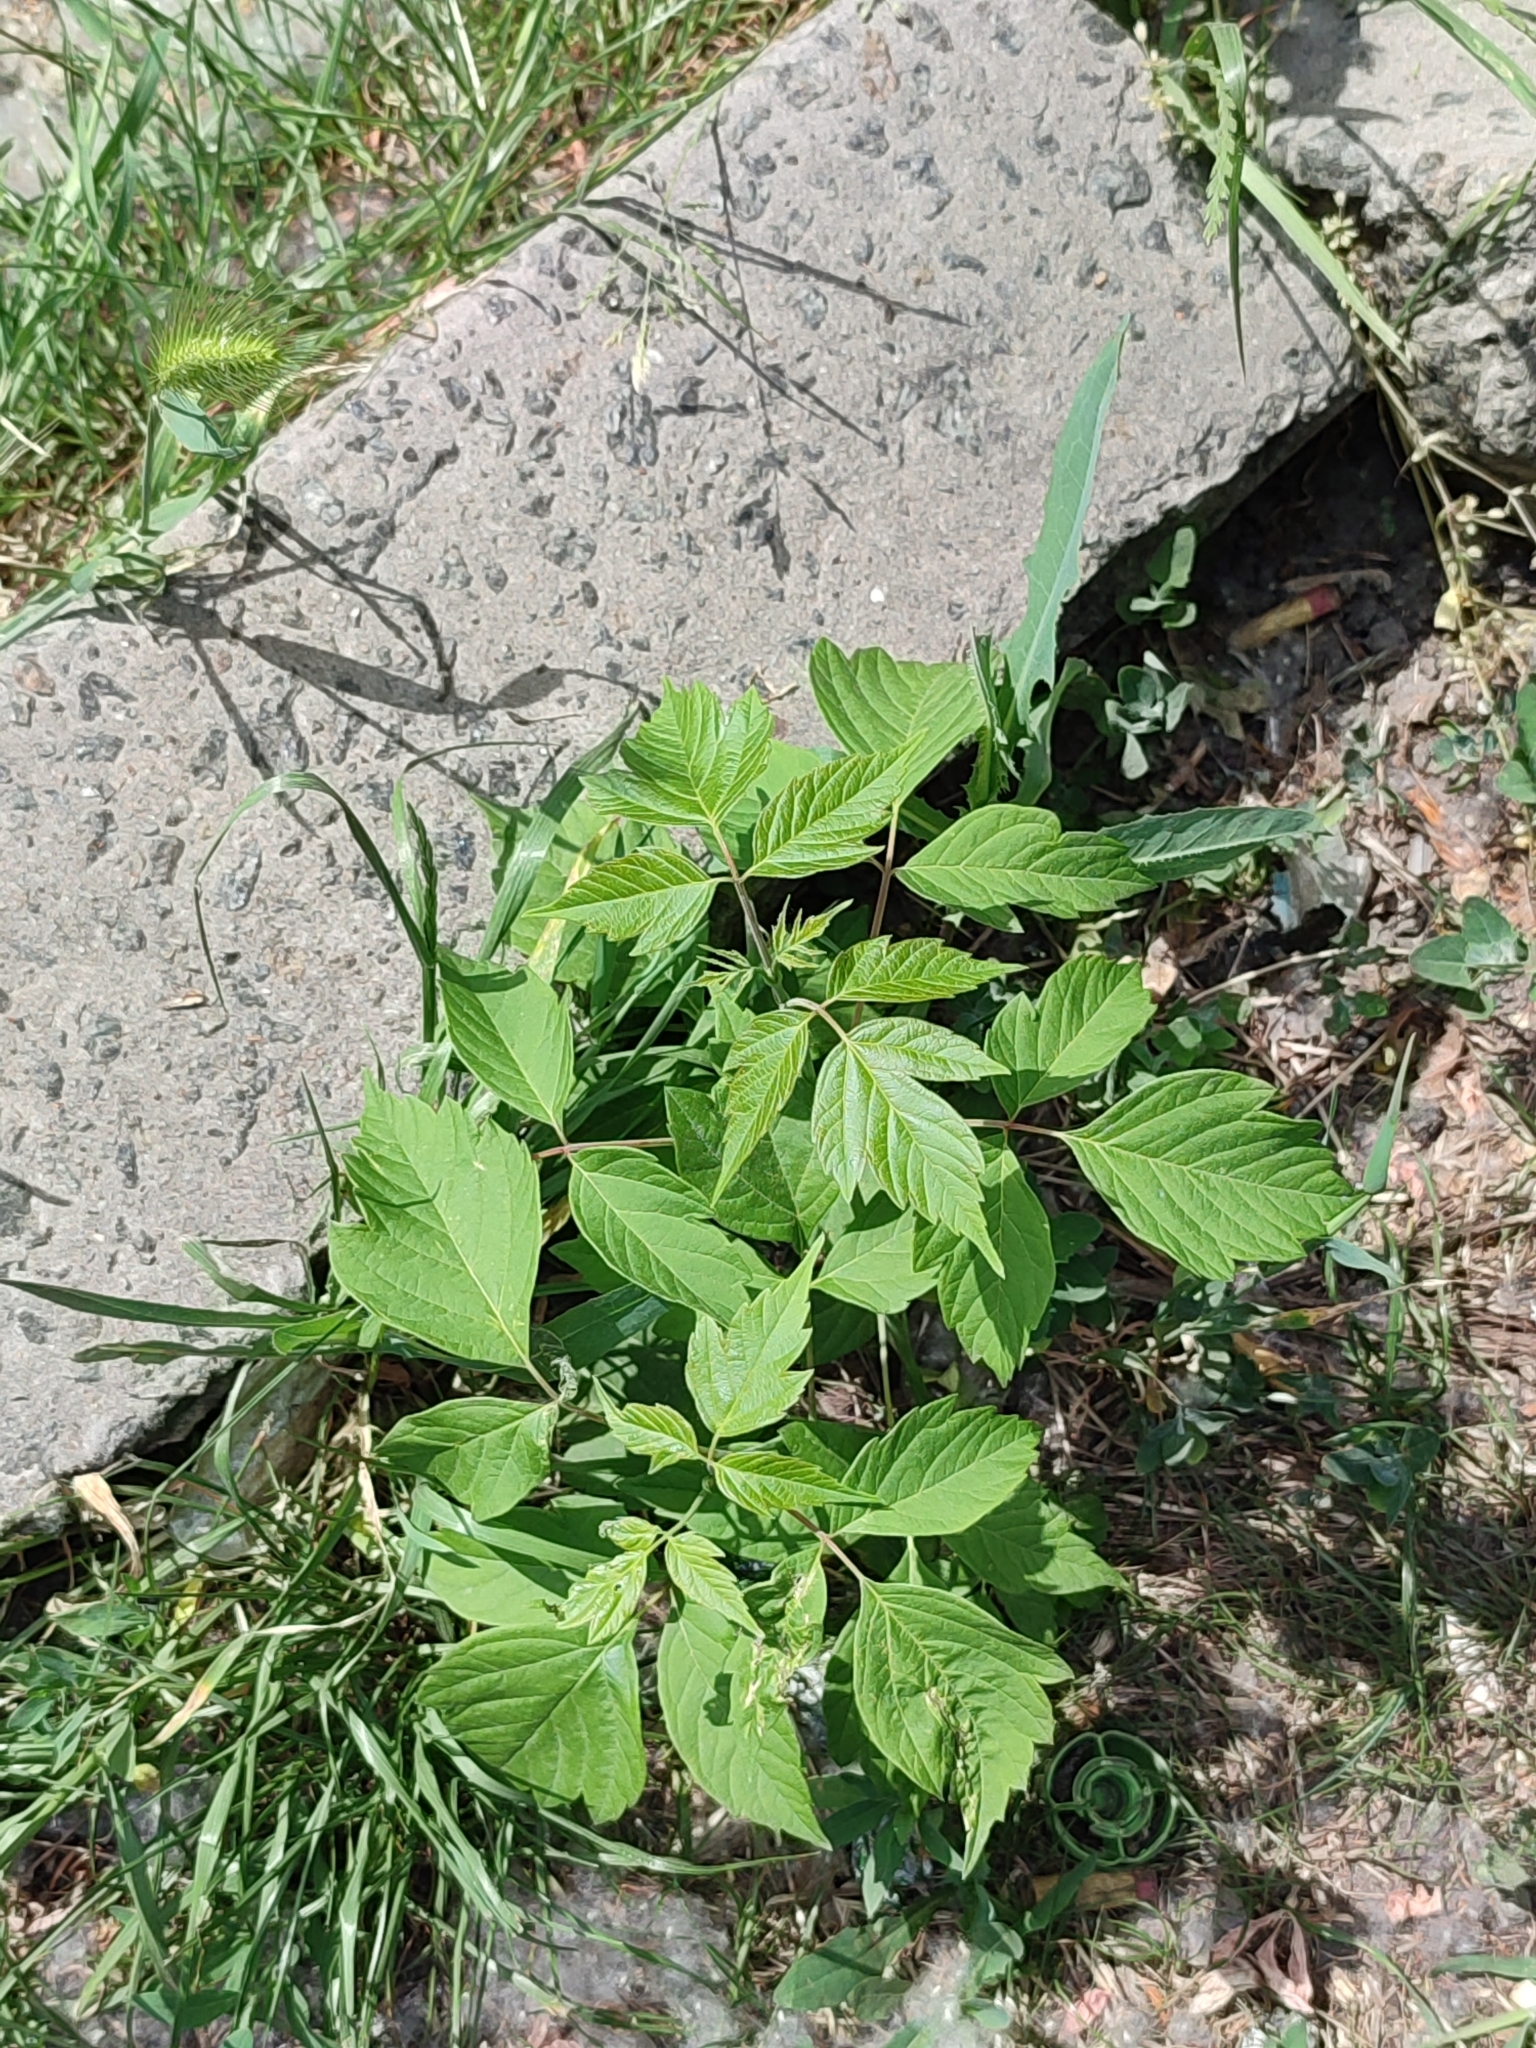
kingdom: Plantae
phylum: Tracheophyta
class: Magnoliopsida
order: Sapindales
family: Sapindaceae
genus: Acer
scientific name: Acer negundo
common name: Ashleaf maple
